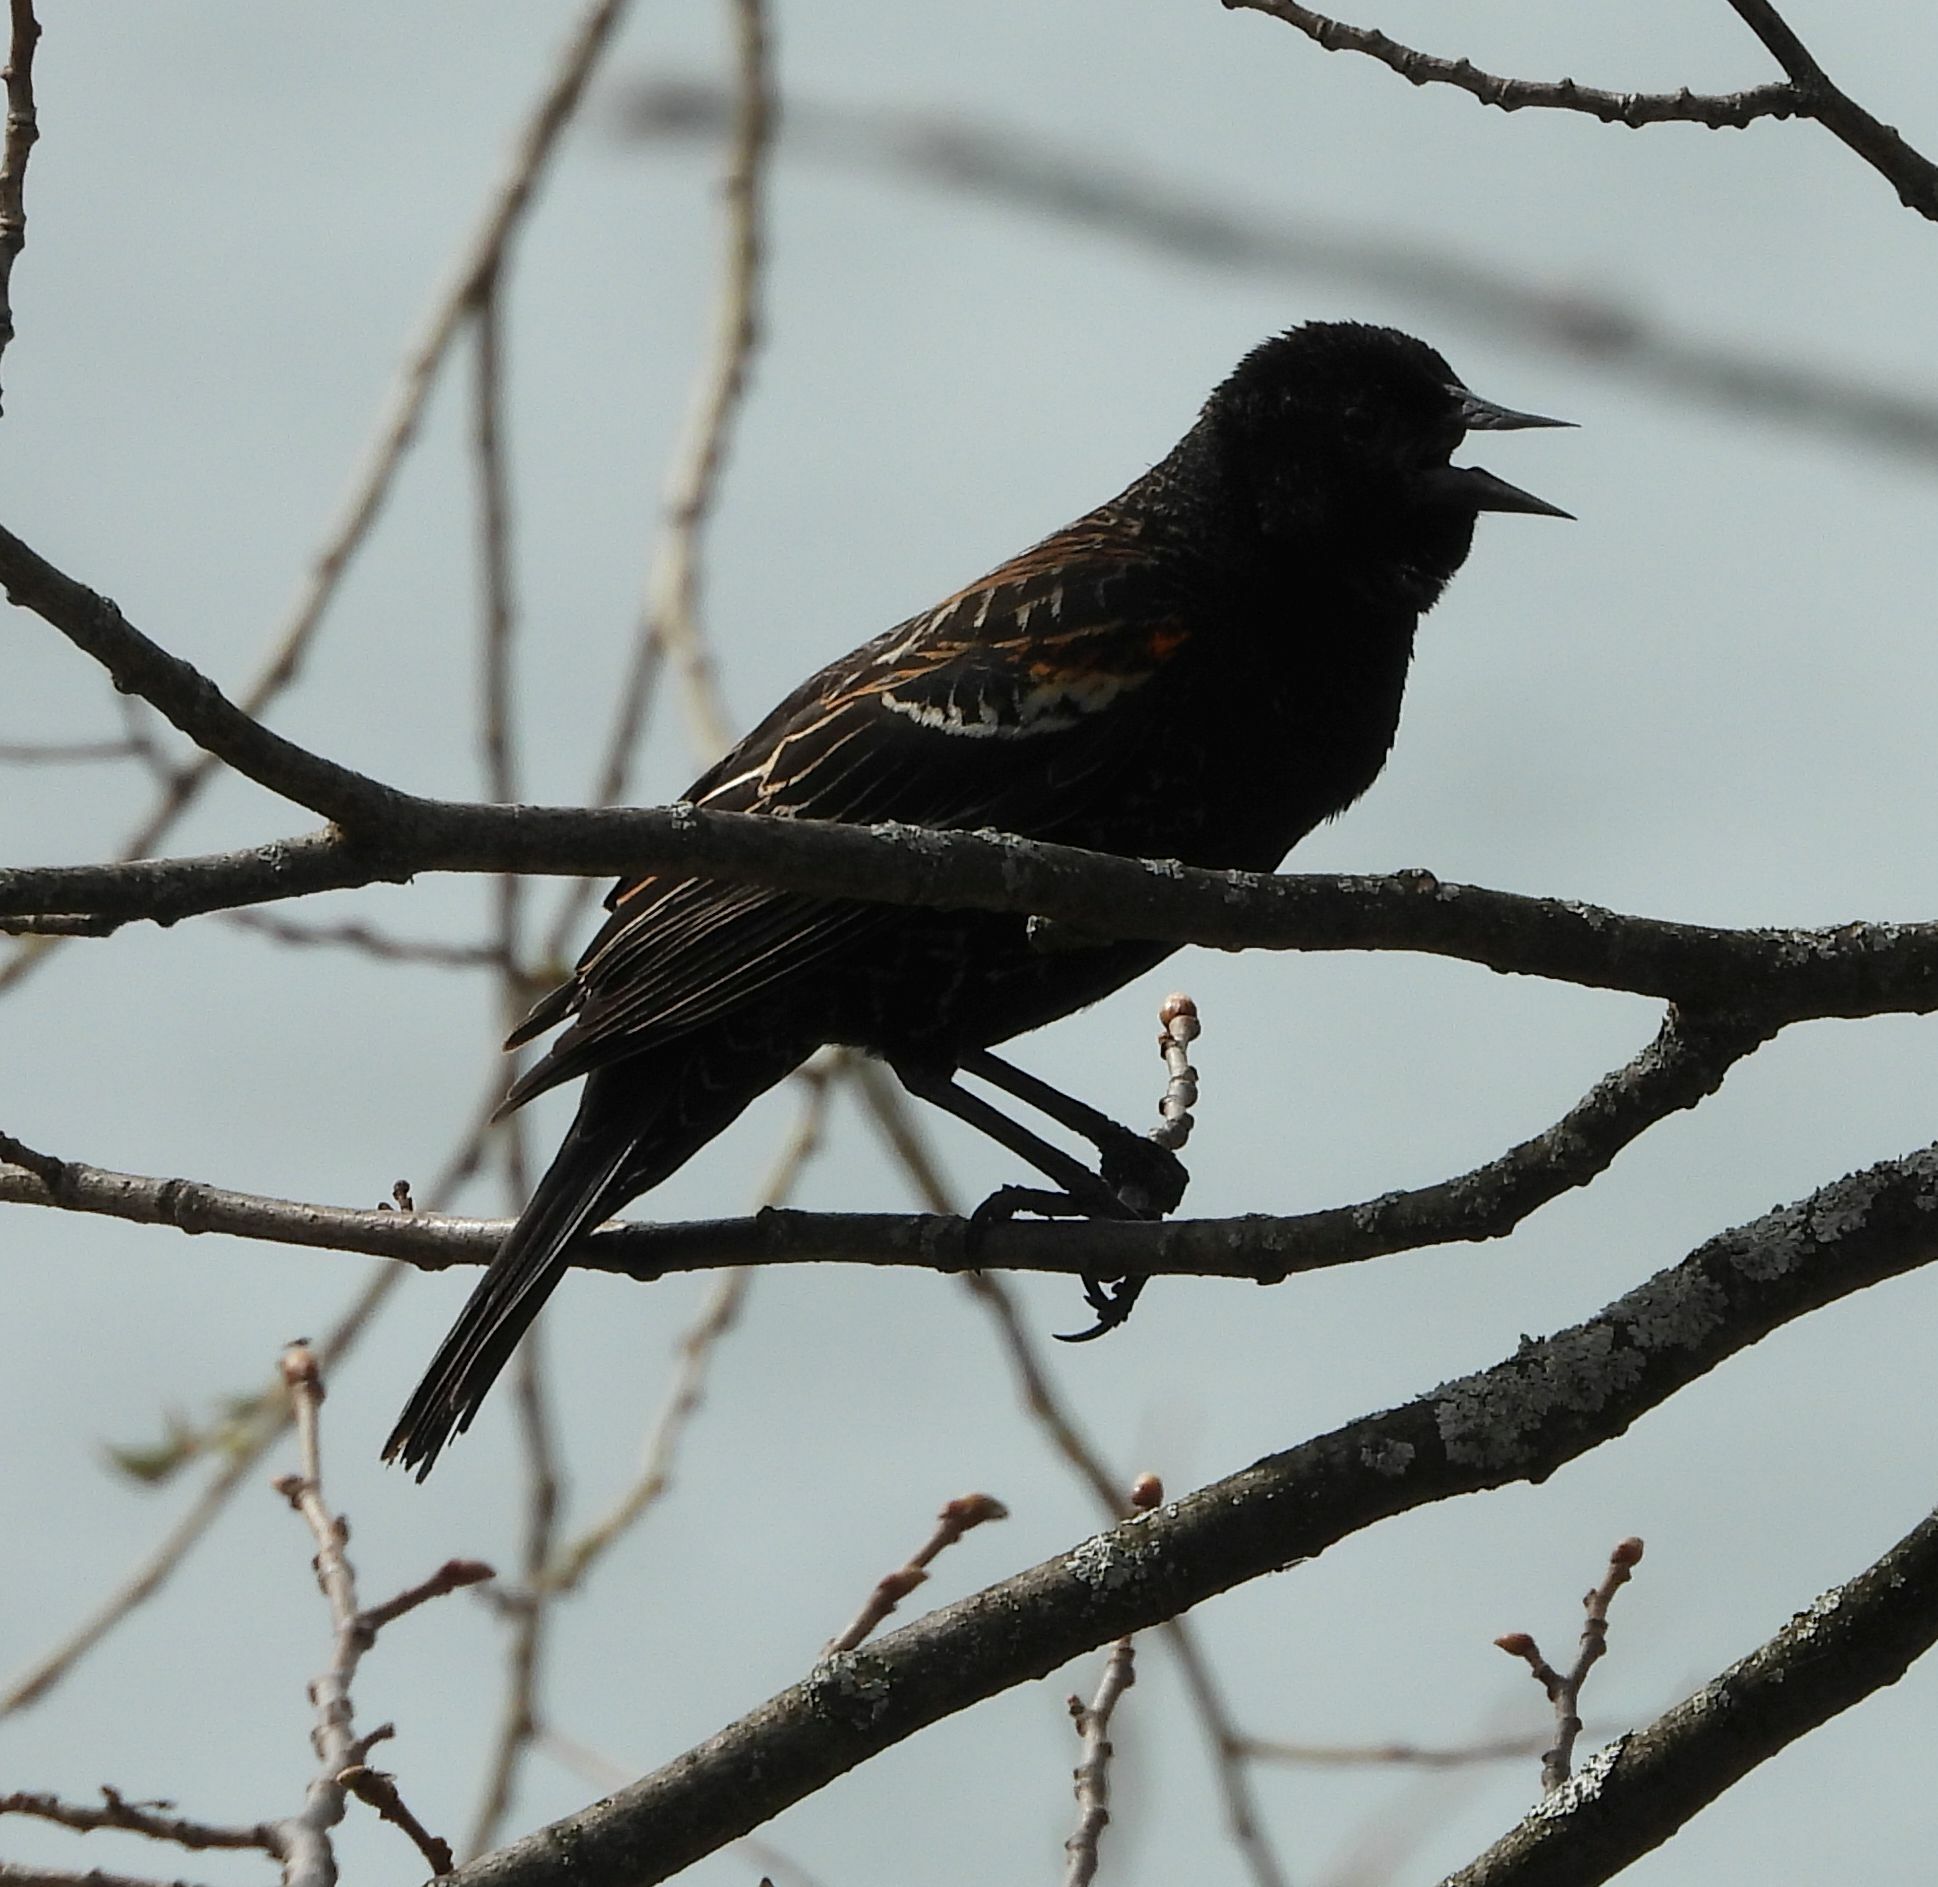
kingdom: Animalia
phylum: Chordata
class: Aves
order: Passeriformes
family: Icteridae
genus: Agelaius
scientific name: Agelaius phoeniceus
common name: Red-winged blackbird
